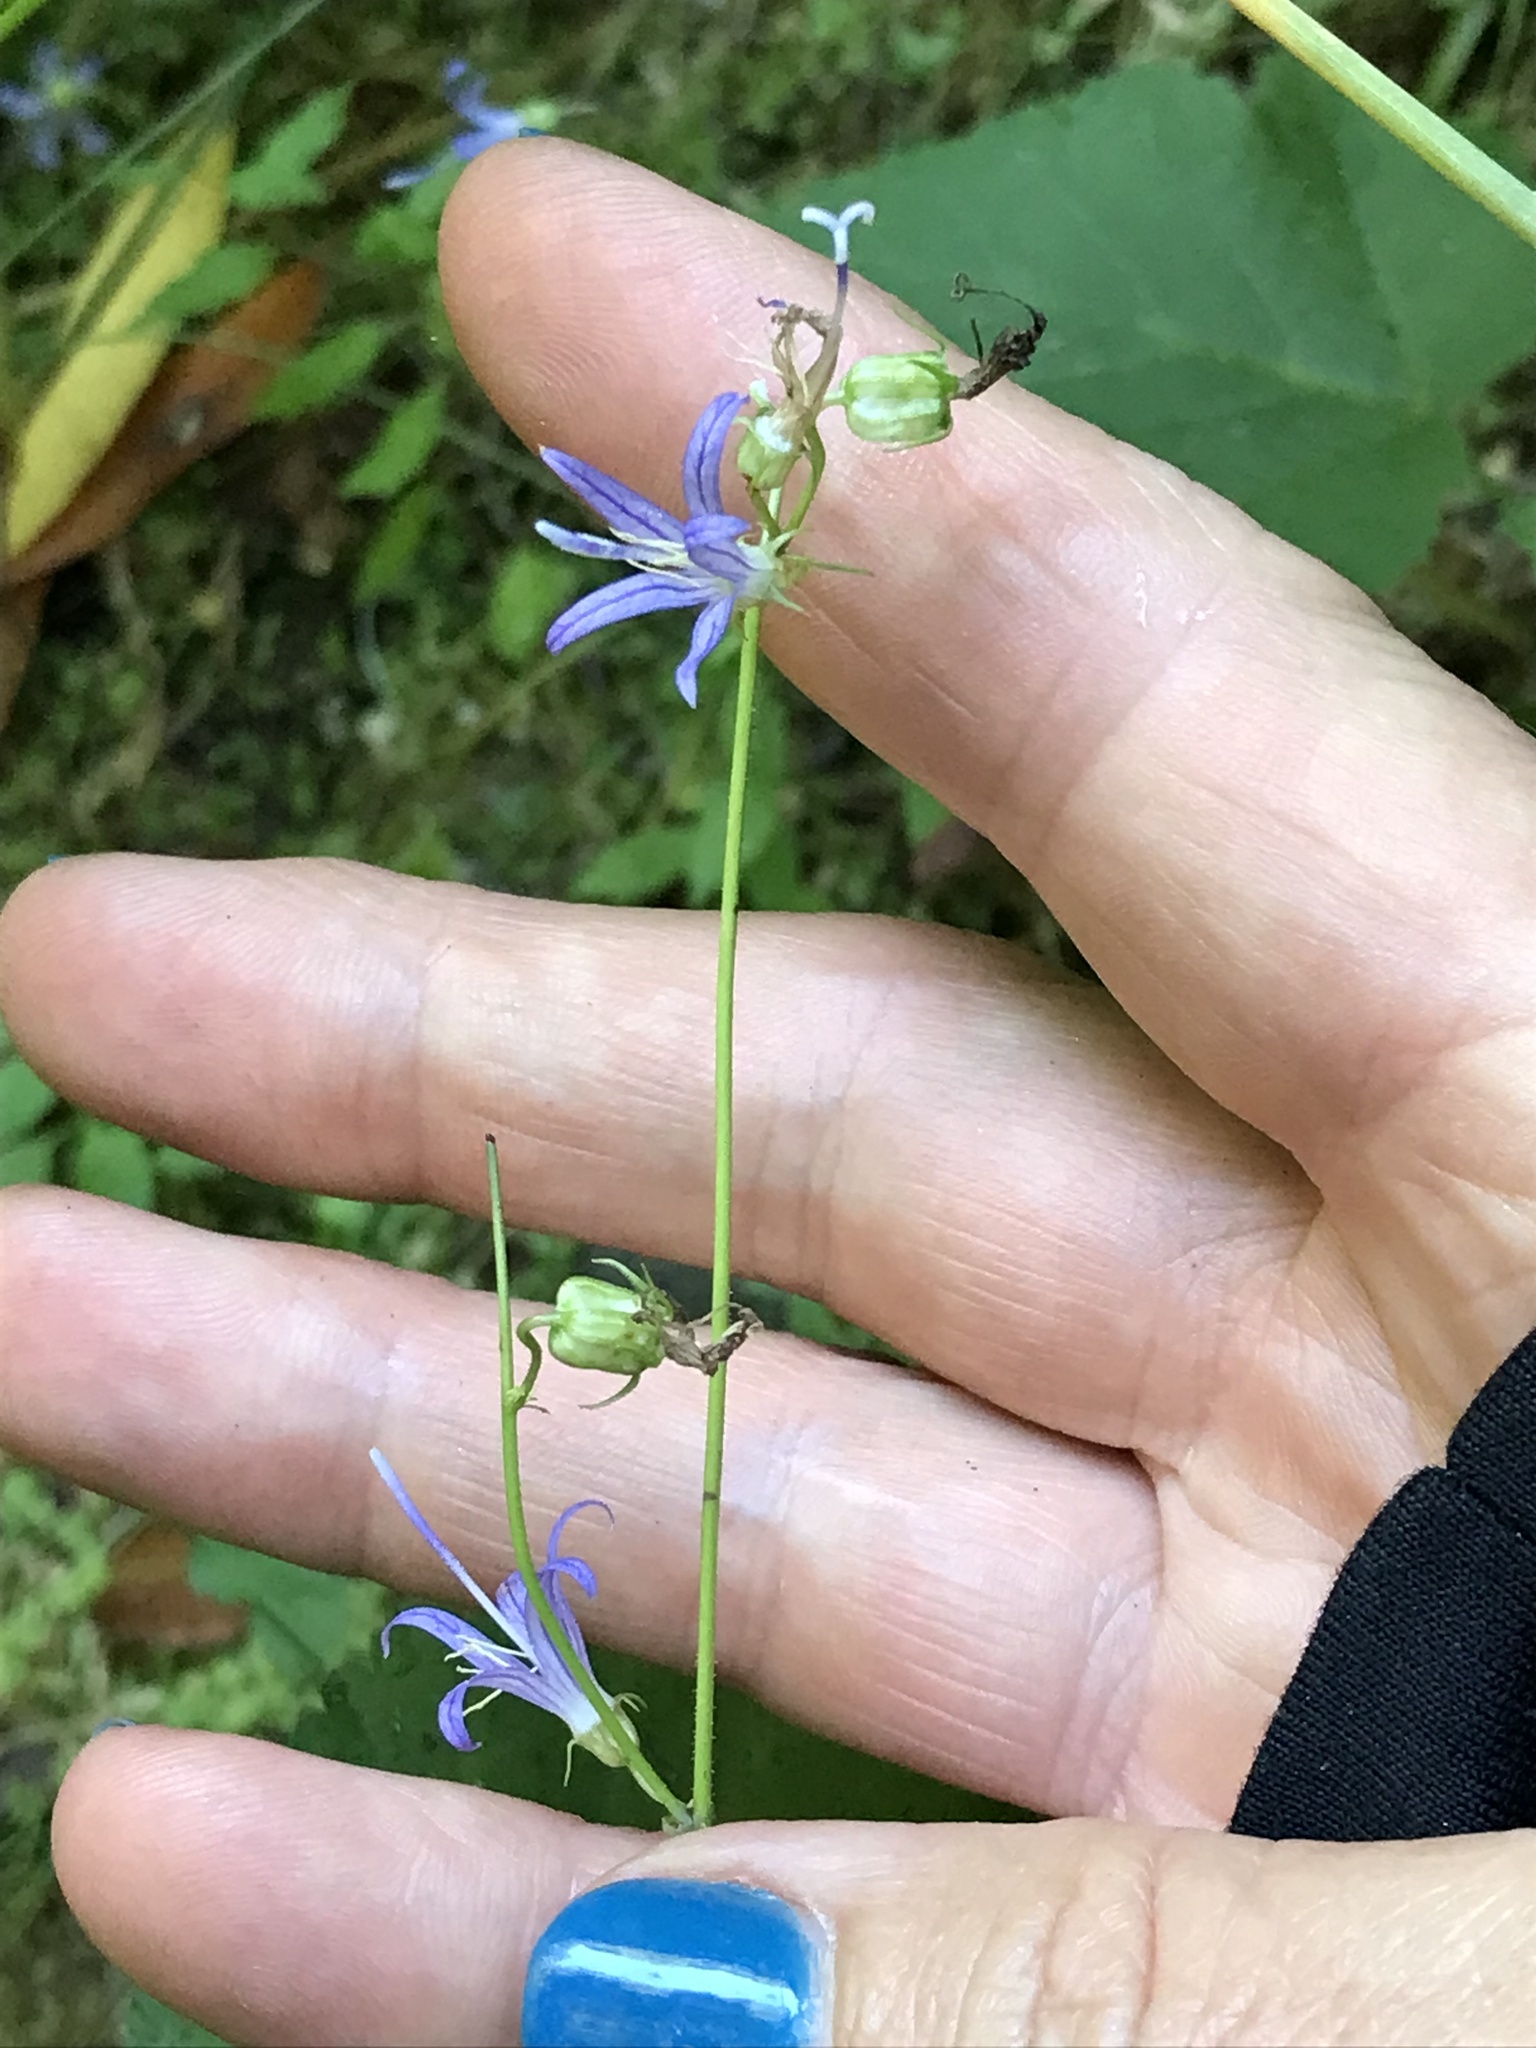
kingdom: Plantae
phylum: Tracheophyta
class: Magnoliopsida
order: Asterales
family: Campanulaceae
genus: Smithiastrum
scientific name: Smithiastrum prenanthoides
